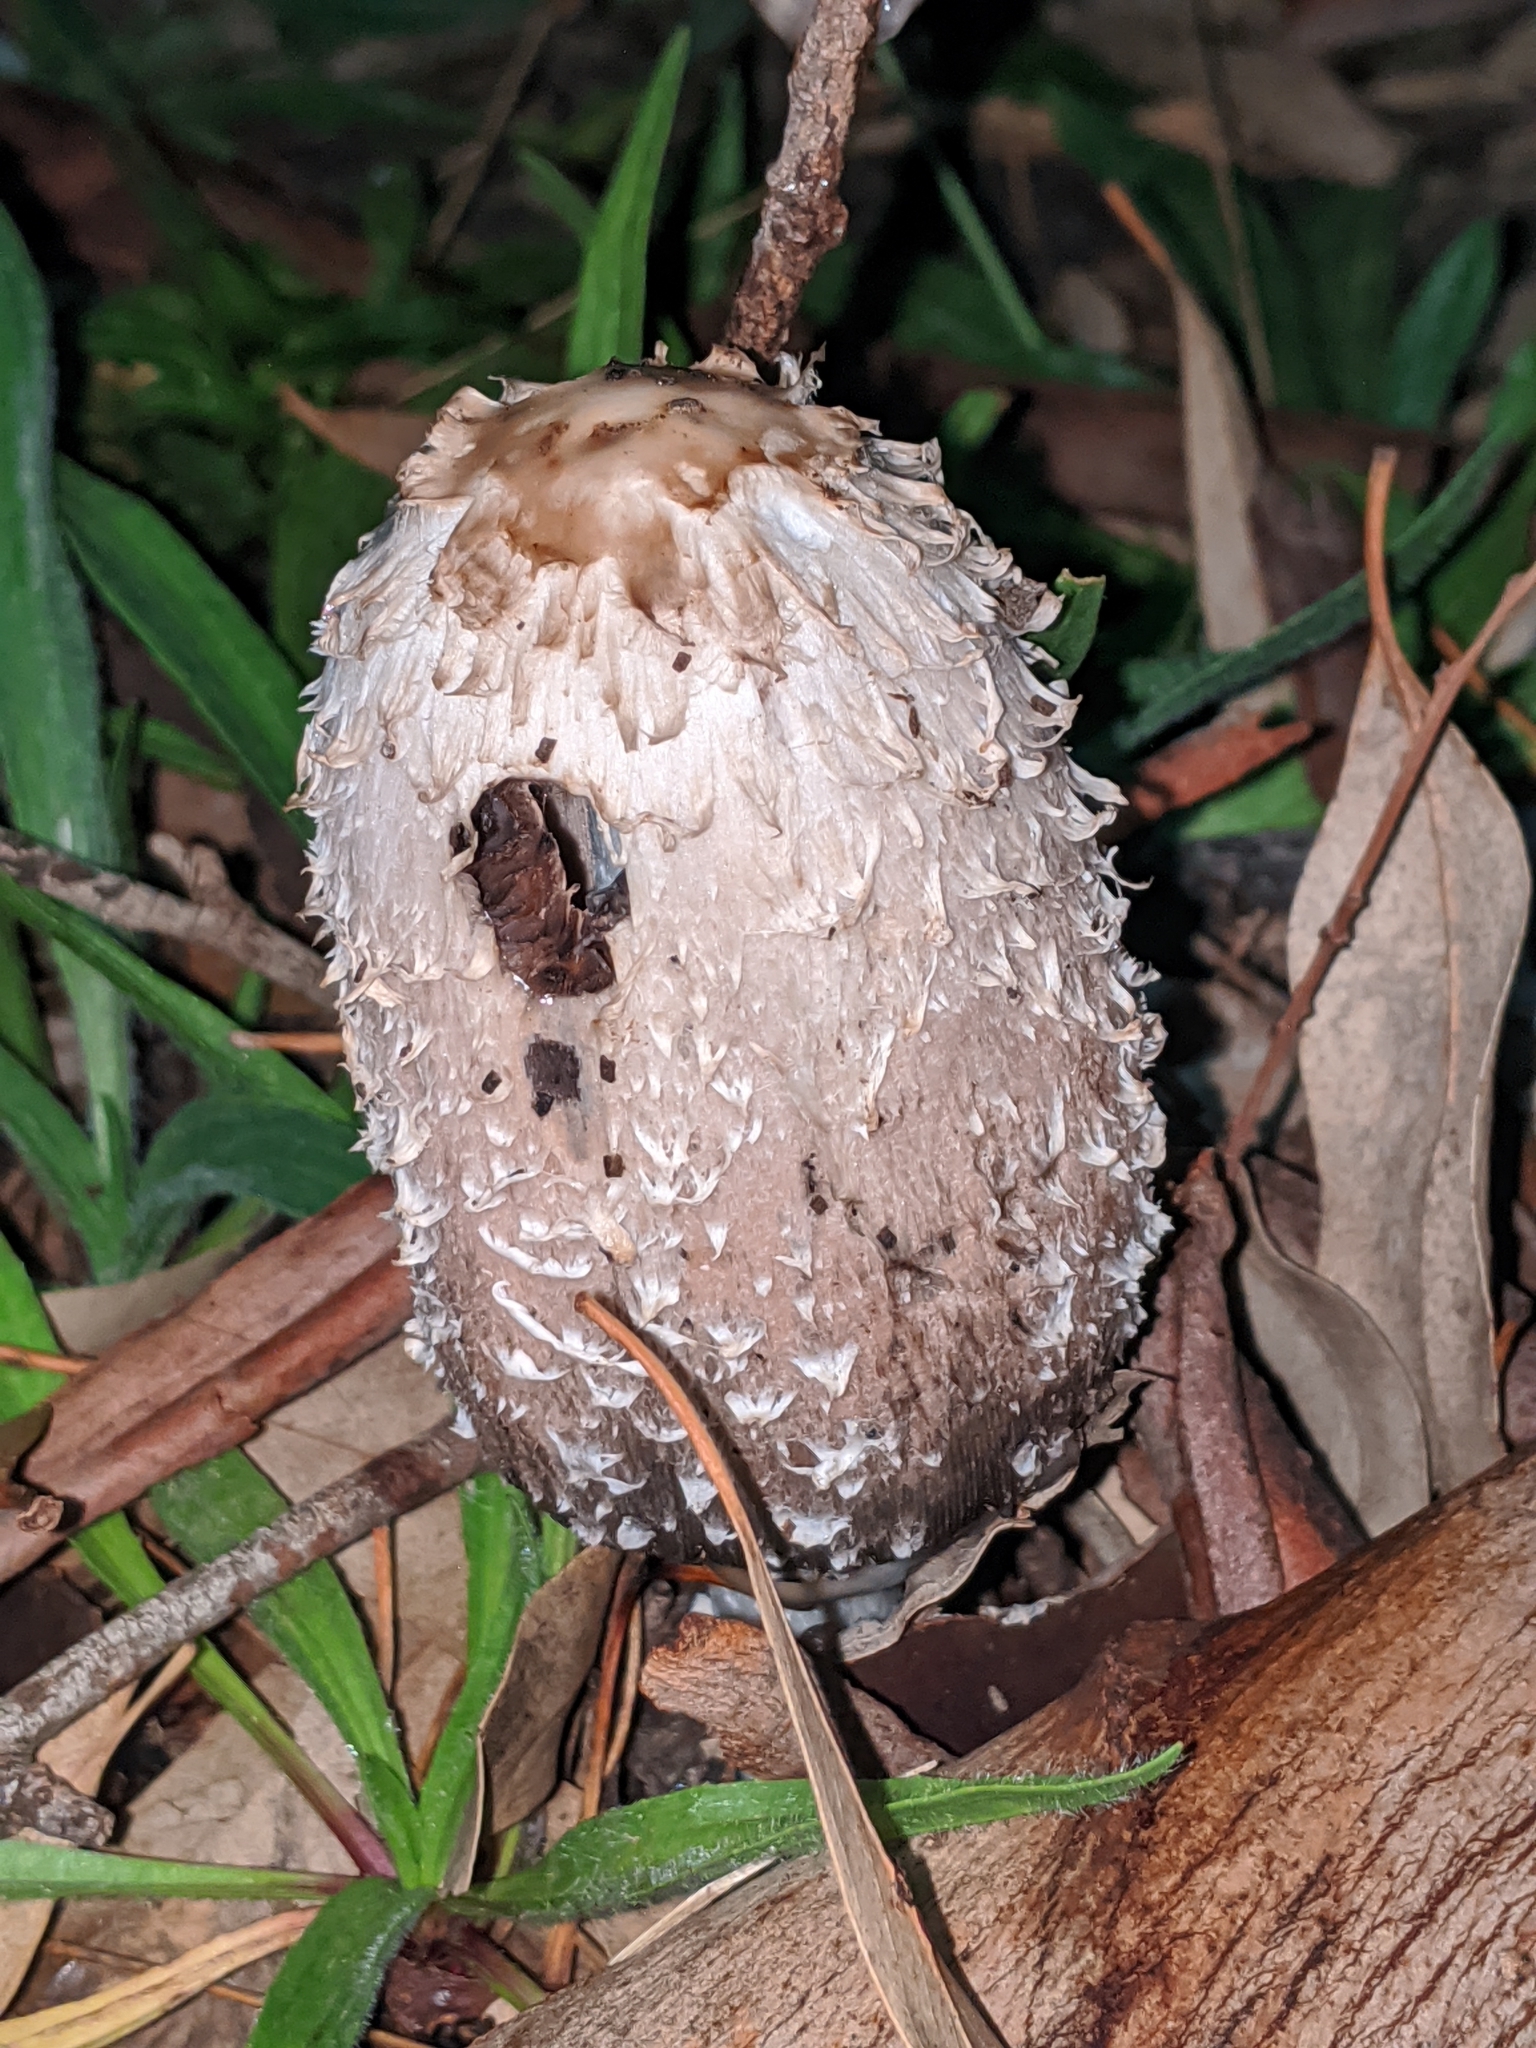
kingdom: Fungi
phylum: Basidiomycota
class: Agaricomycetes
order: Agaricales
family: Agaricaceae
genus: Coprinus
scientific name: Coprinus comatus
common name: Lawyer's wig
